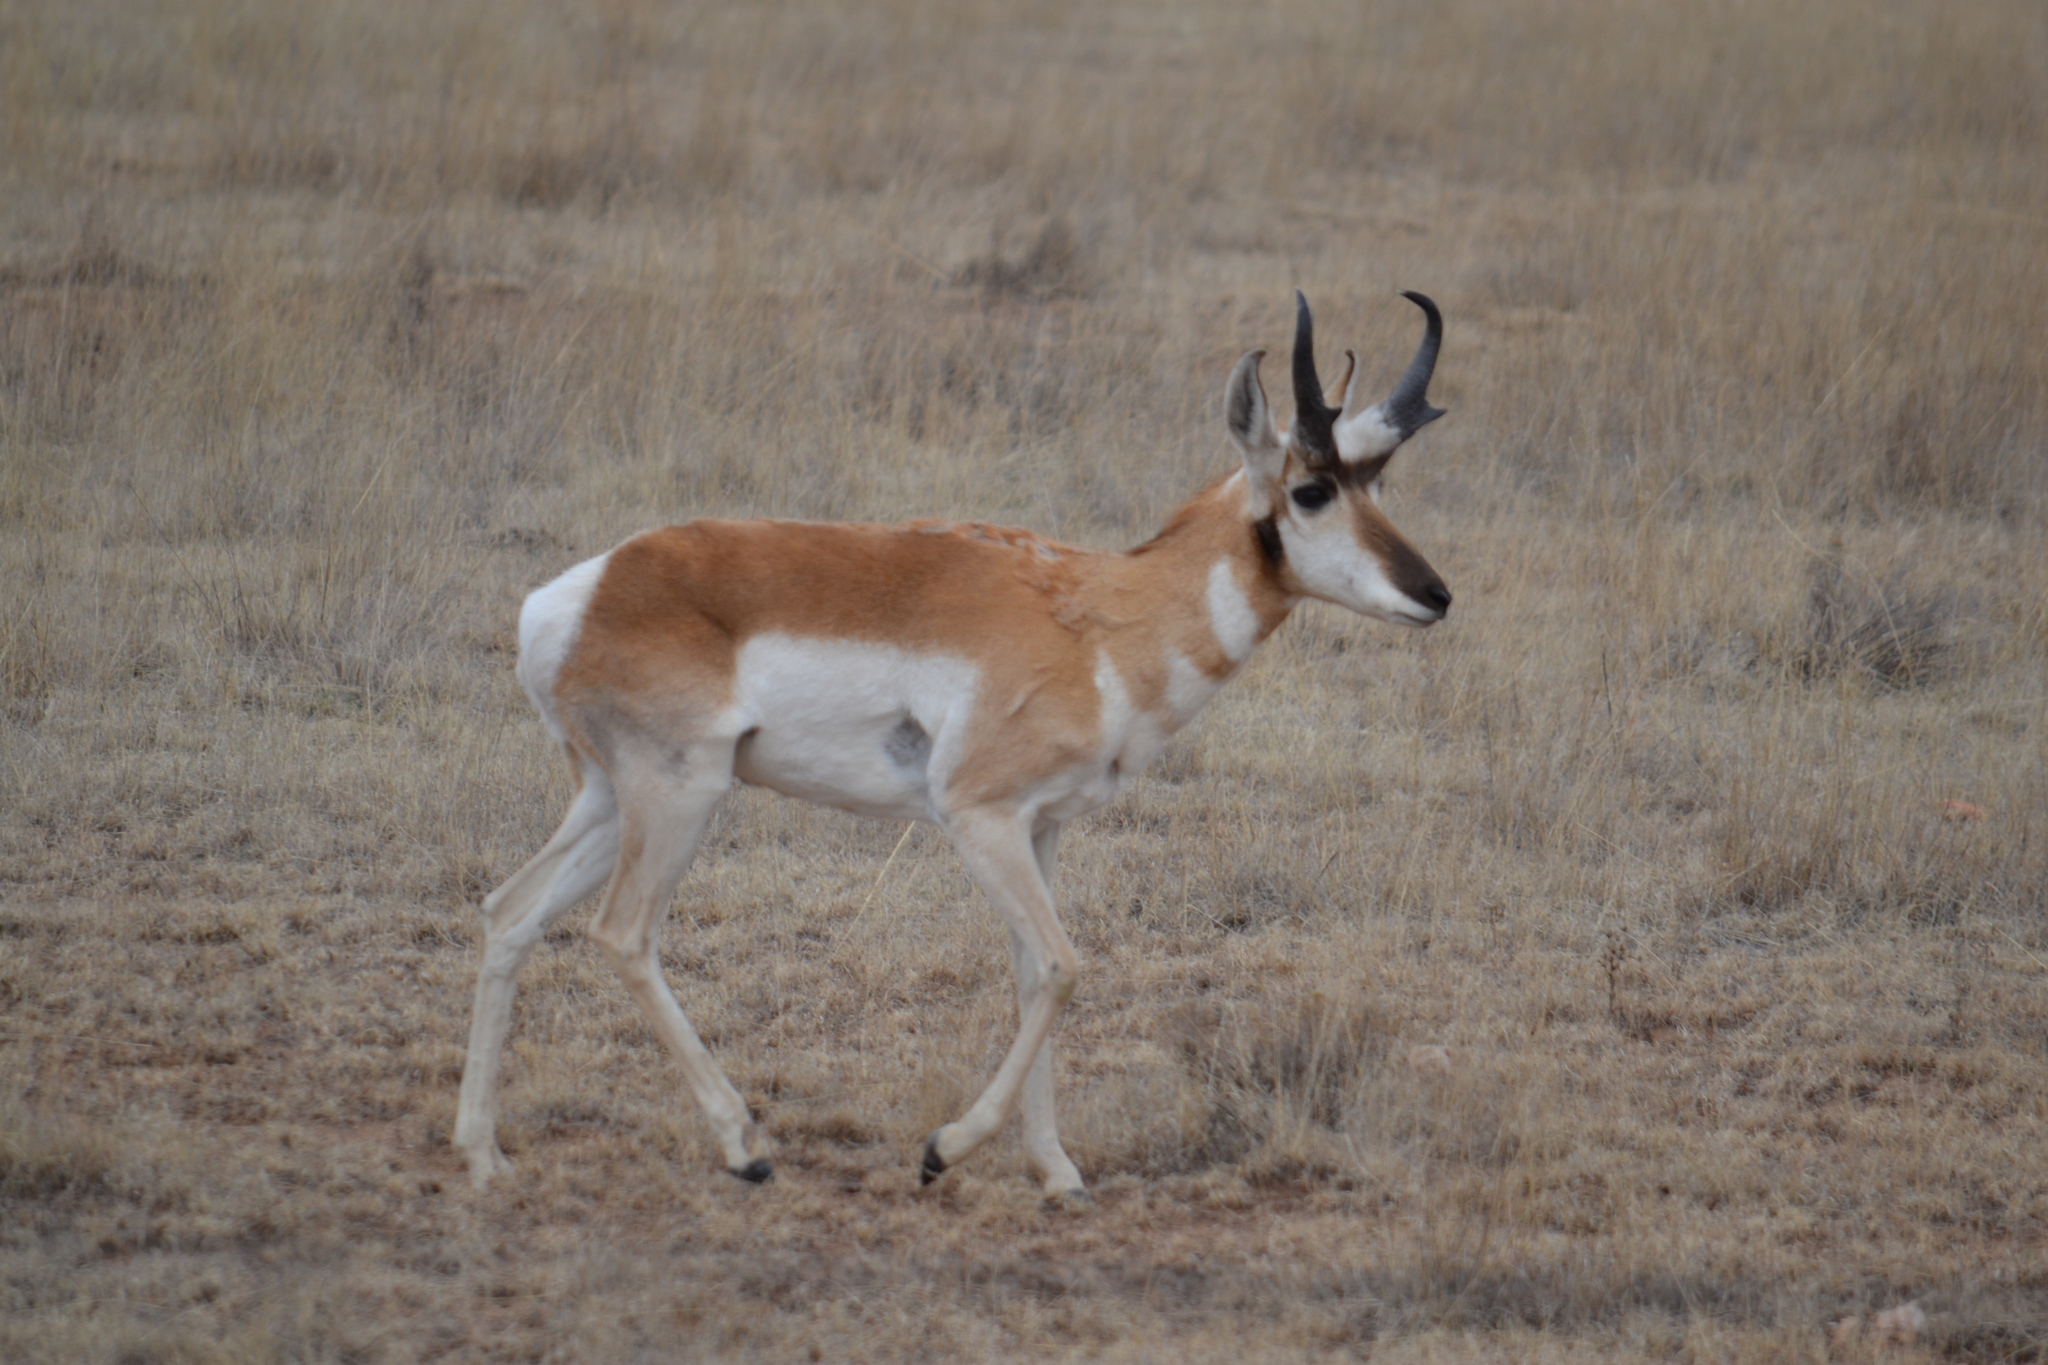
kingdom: Animalia
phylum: Chordata
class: Mammalia
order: Artiodactyla
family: Antilocapridae
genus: Antilocapra
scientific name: Antilocapra americana
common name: Pronghorn
